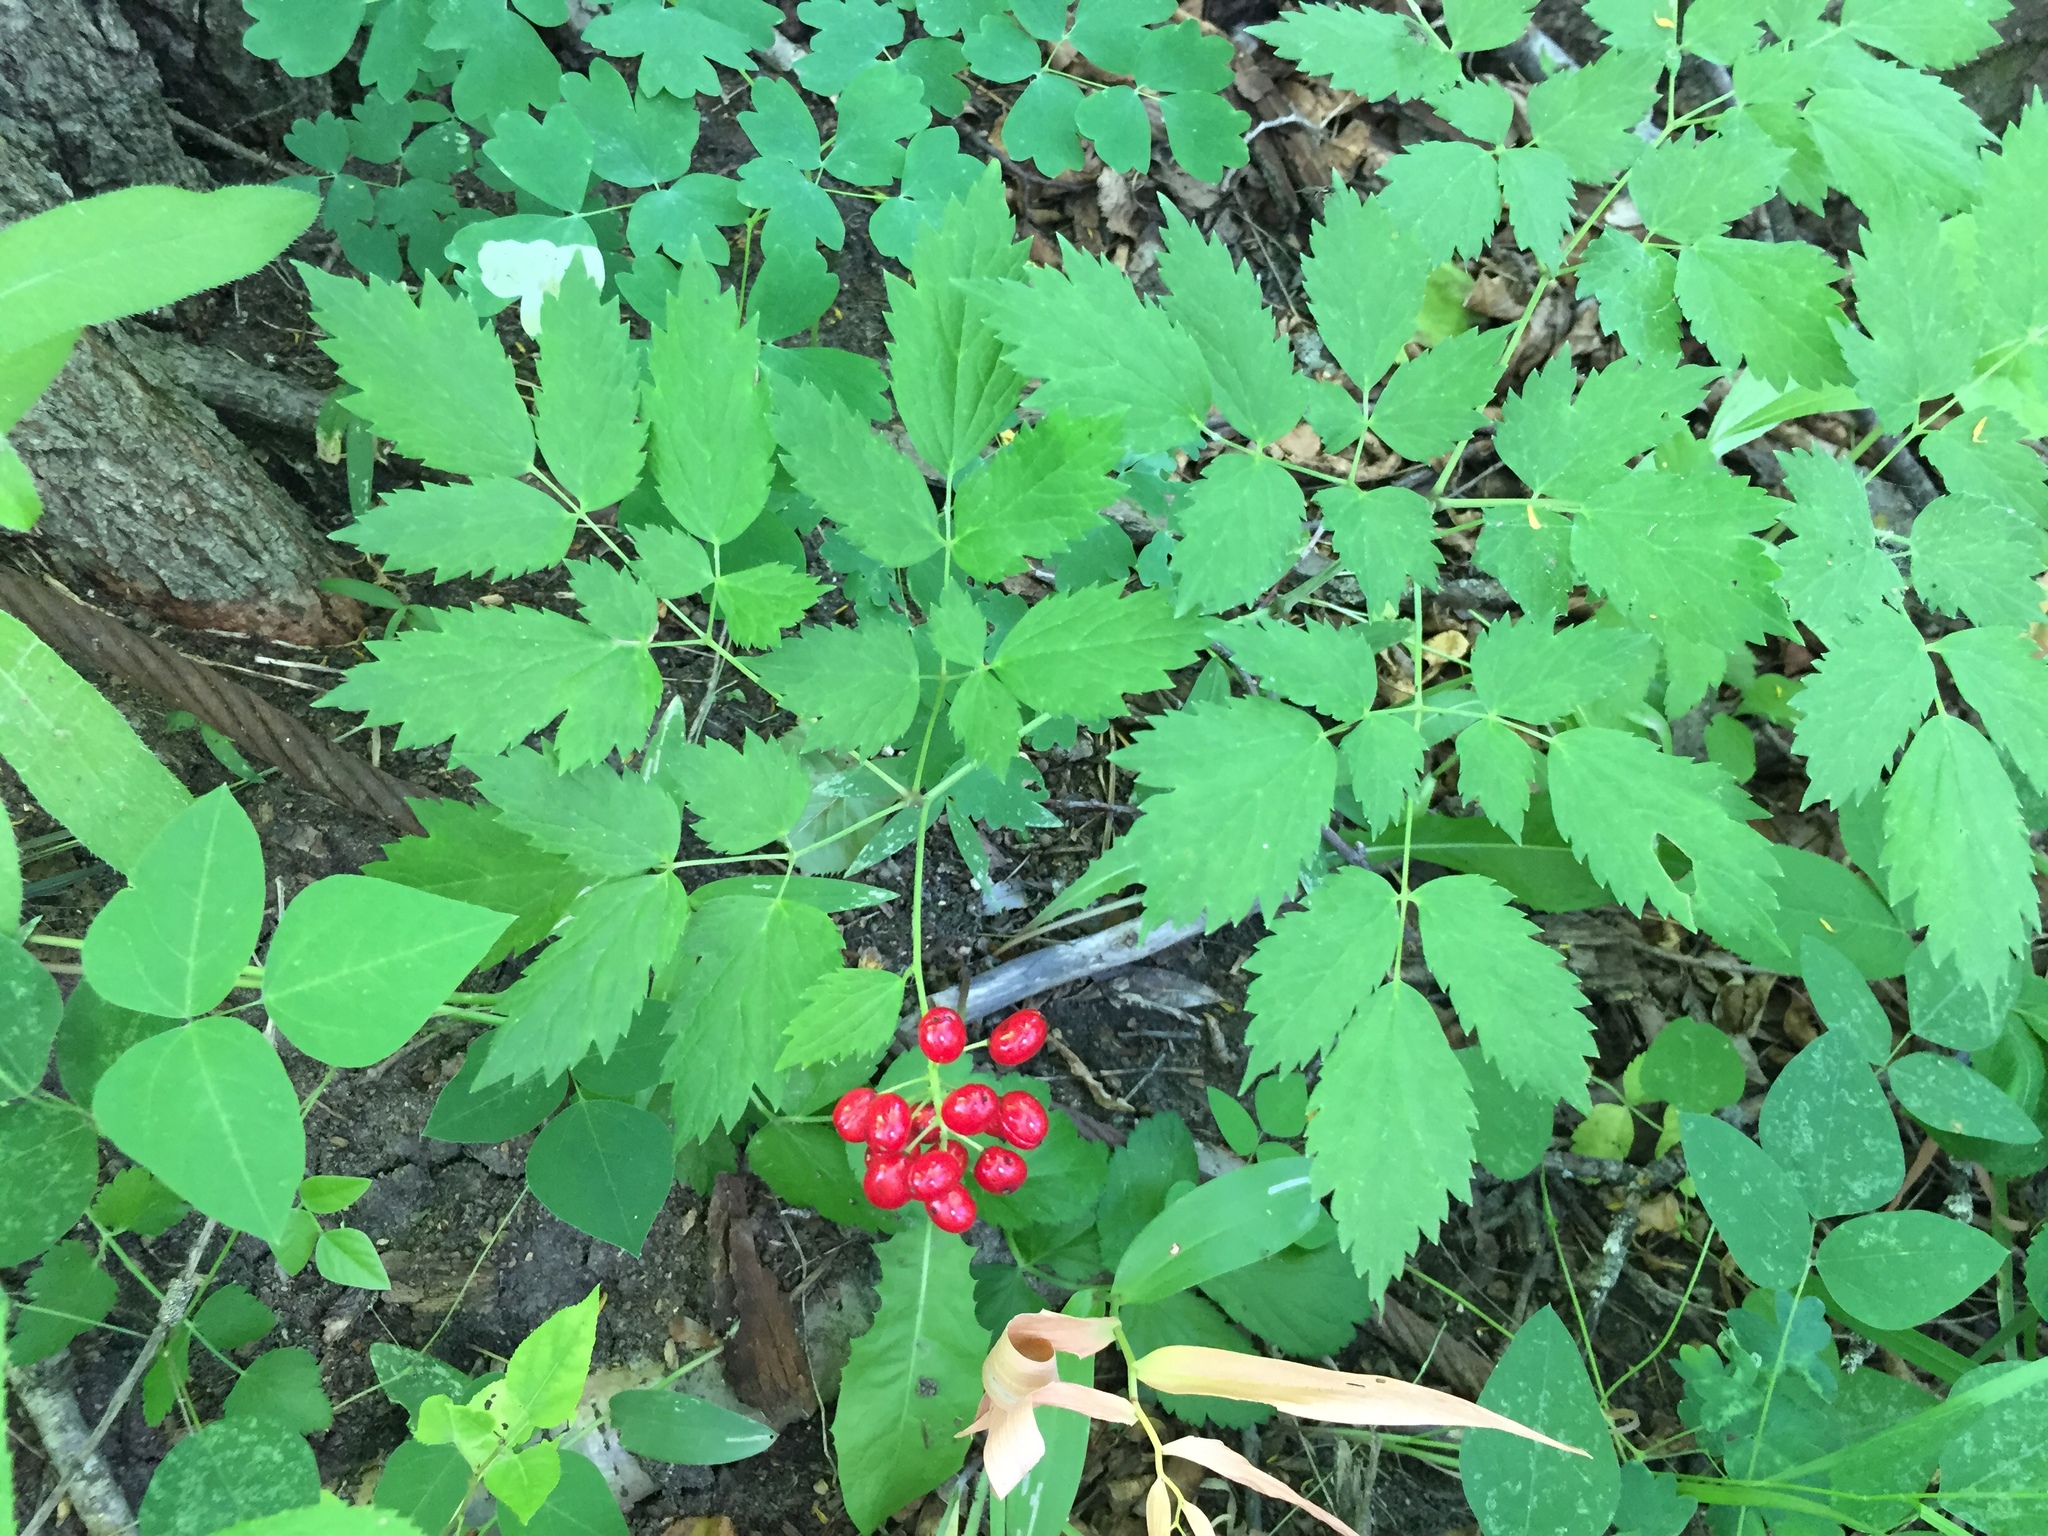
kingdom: Plantae
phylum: Tracheophyta
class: Magnoliopsida
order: Ranunculales
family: Ranunculaceae
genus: Actaea
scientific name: Actaea rubra
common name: Red baneberry
